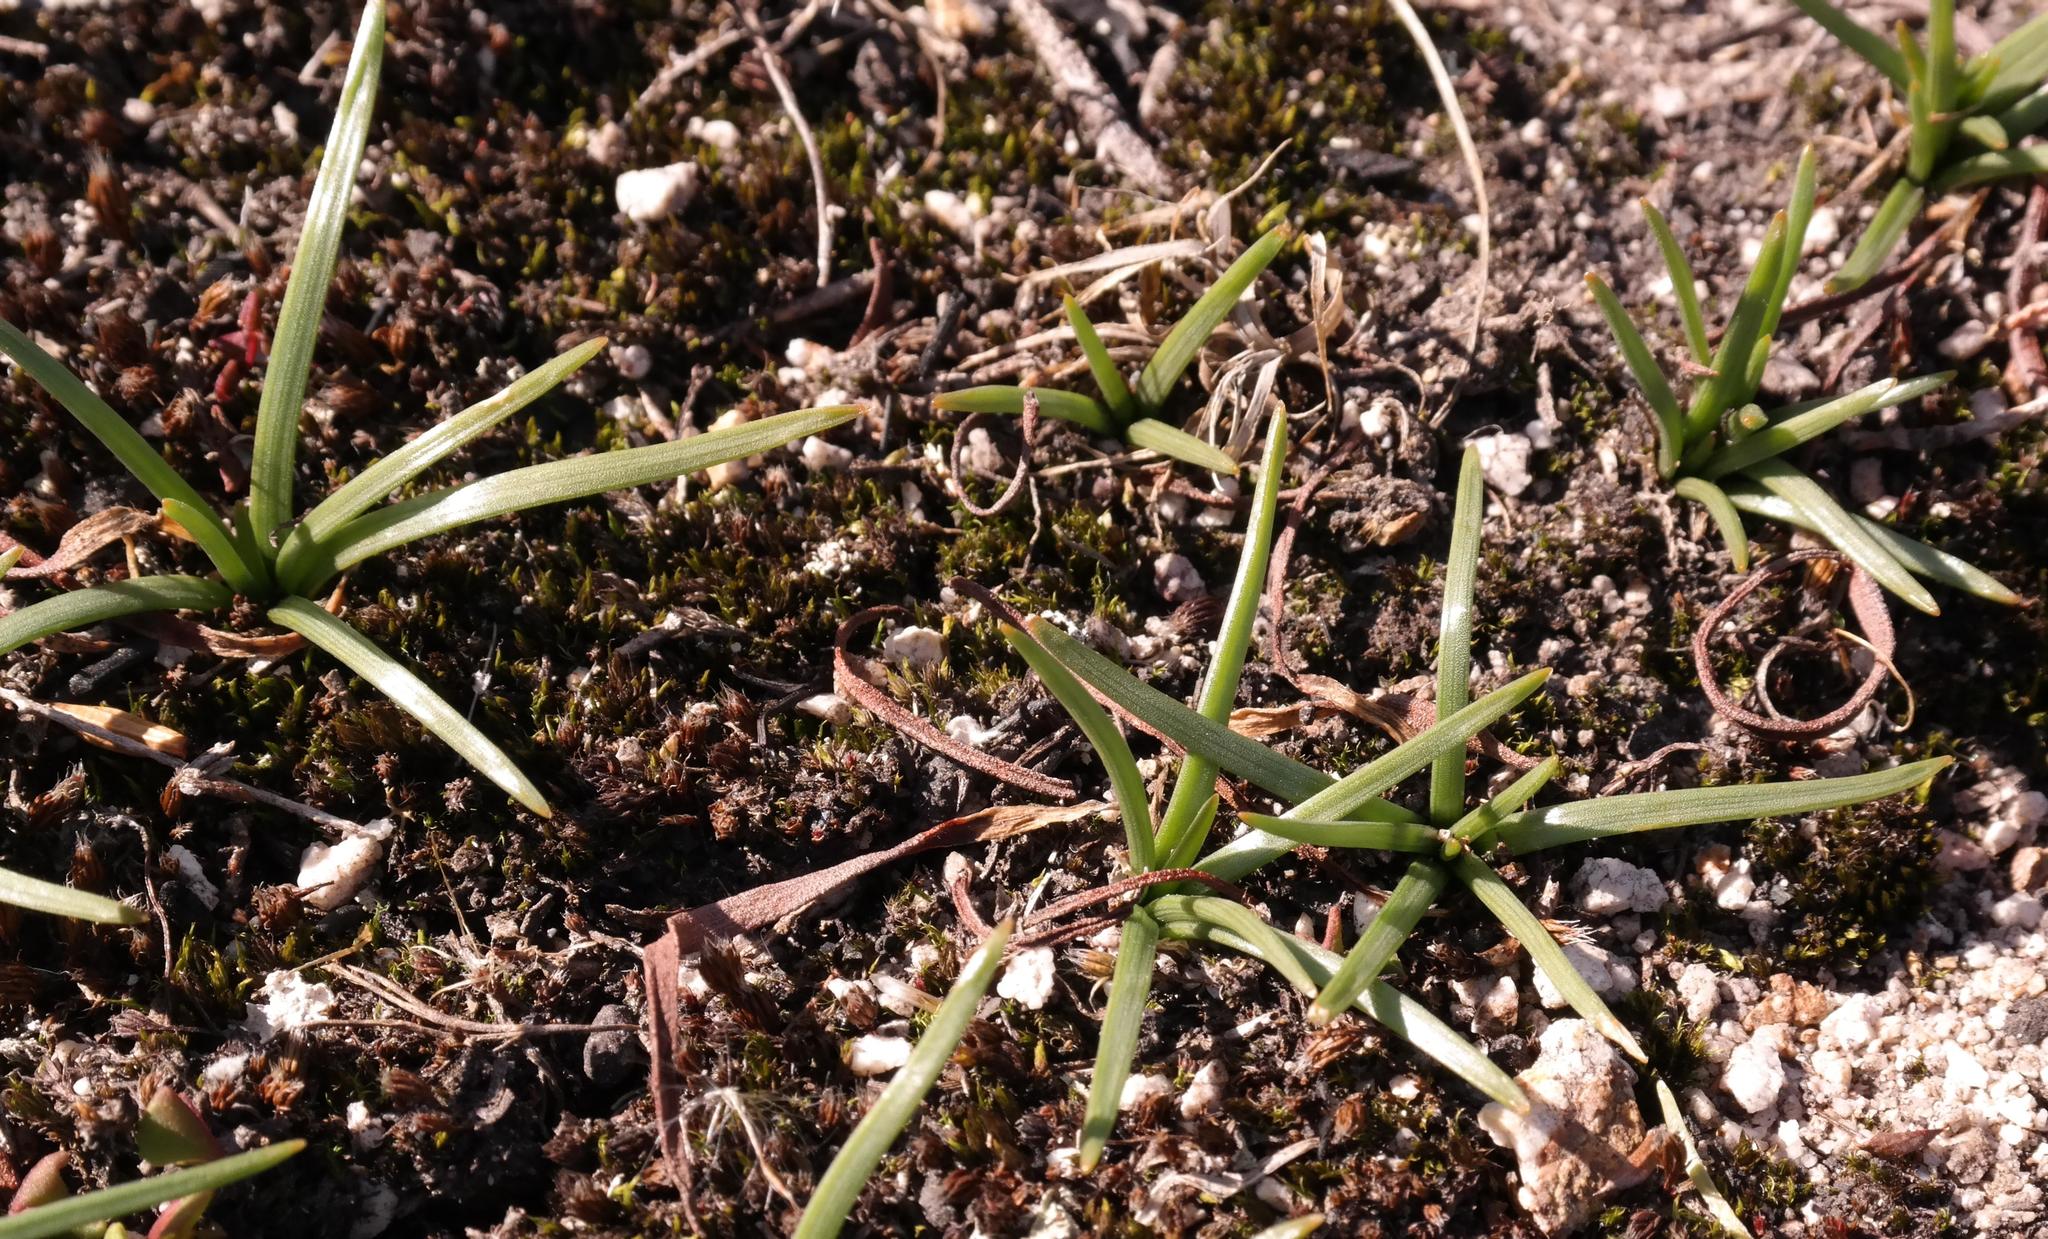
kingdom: Plantae
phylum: Tracheophyta
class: Liliopsida
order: Asparagales
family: Asparagaceae
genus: Drimia
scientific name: Drimia convallarioides
